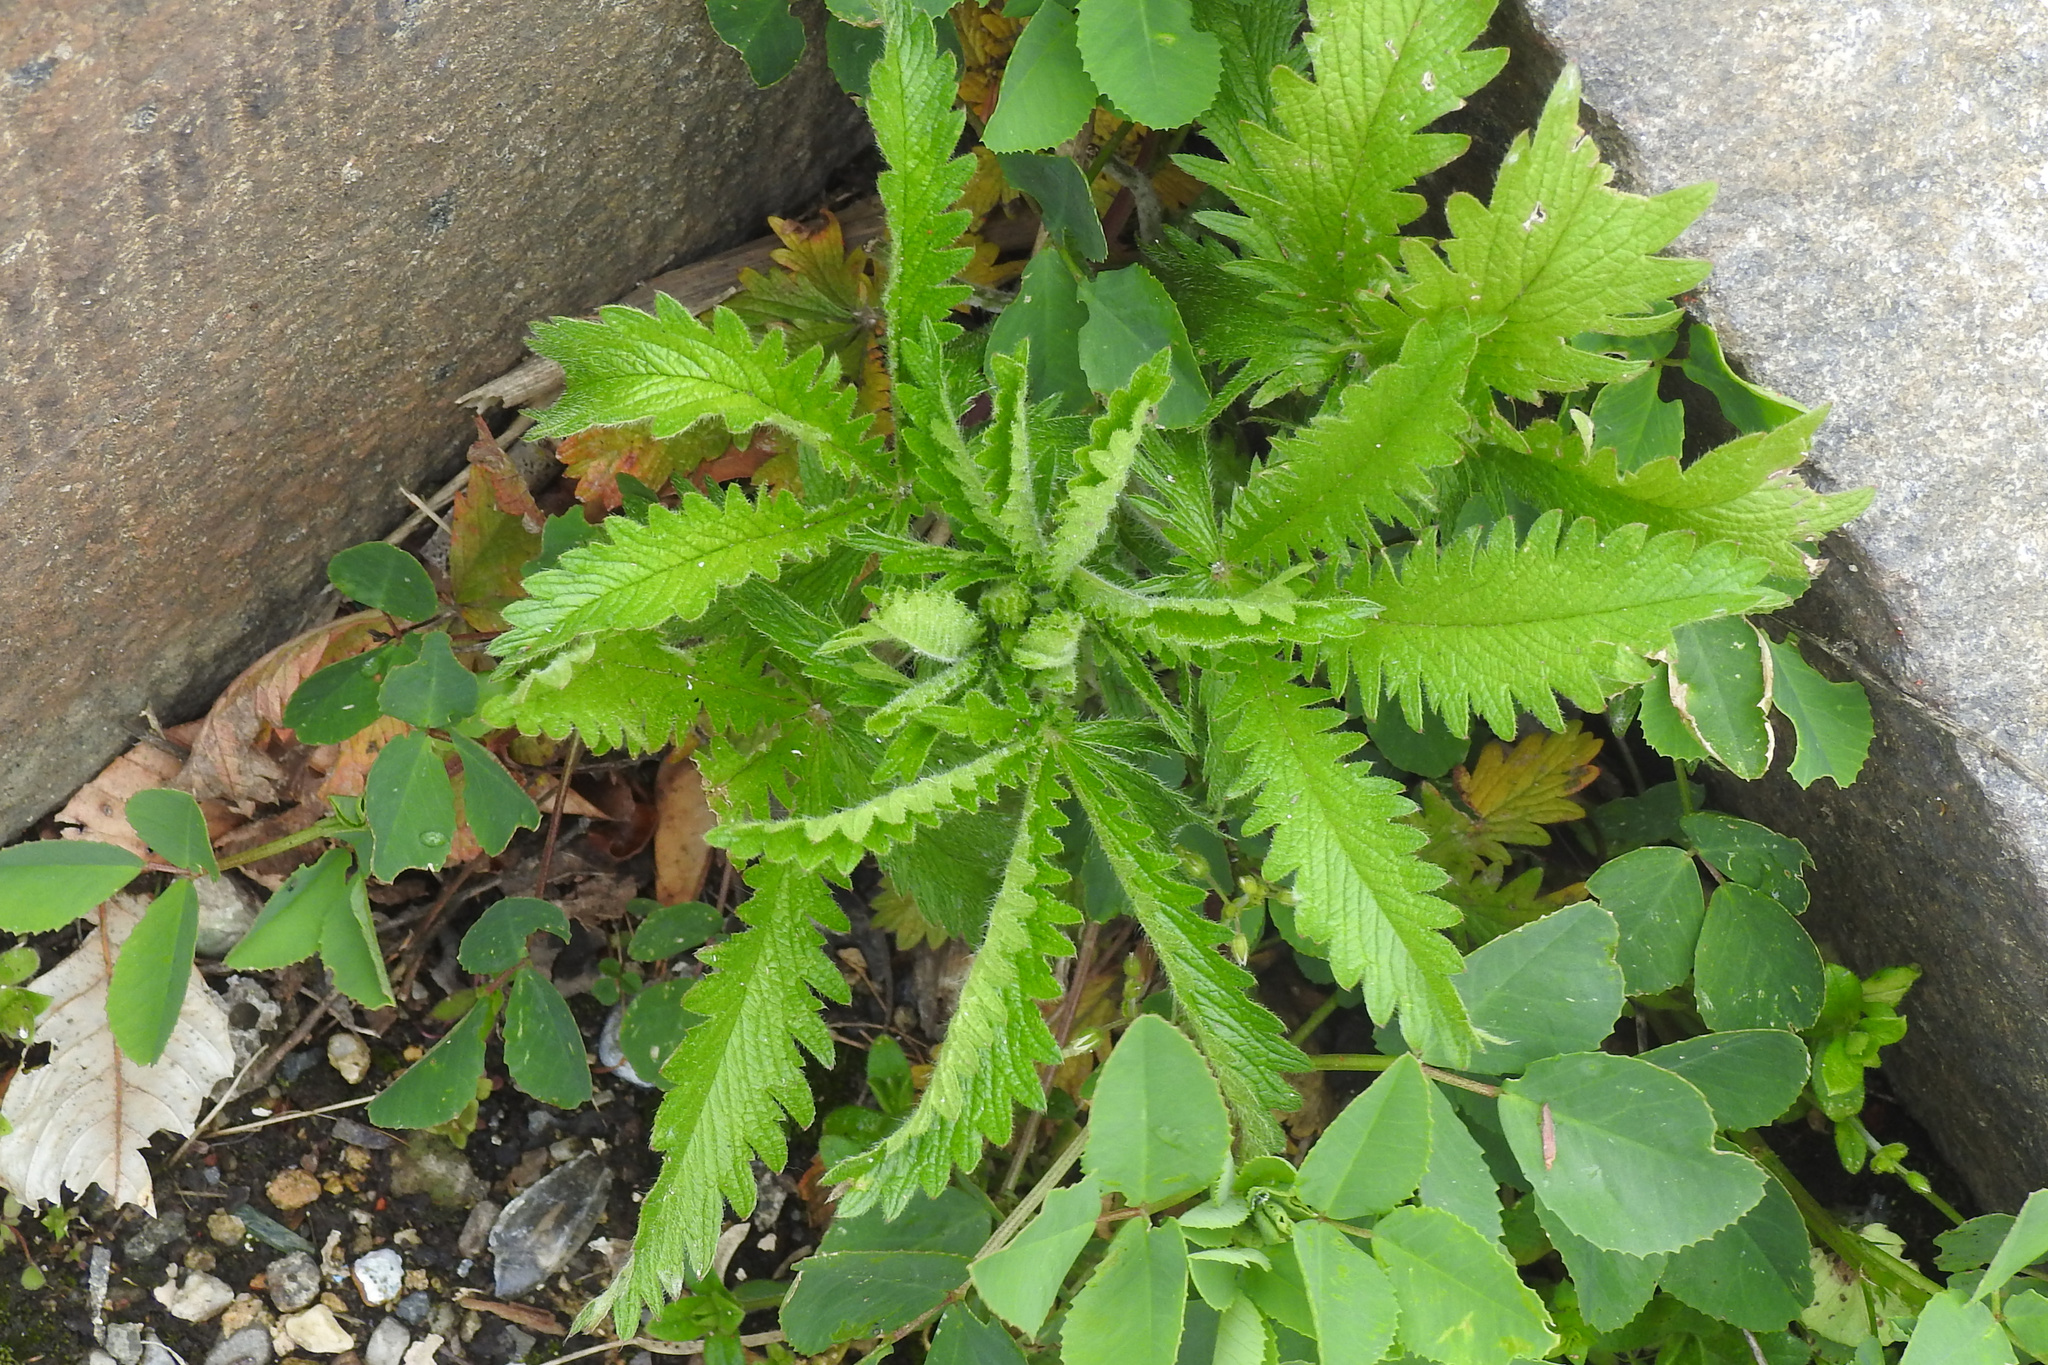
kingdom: Plantae
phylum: Tracheophyta
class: Magnoliopsida
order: Rosales
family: Rosaceae
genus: Potentilla
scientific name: Potentilla recta
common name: Sulphur cinquefoil
